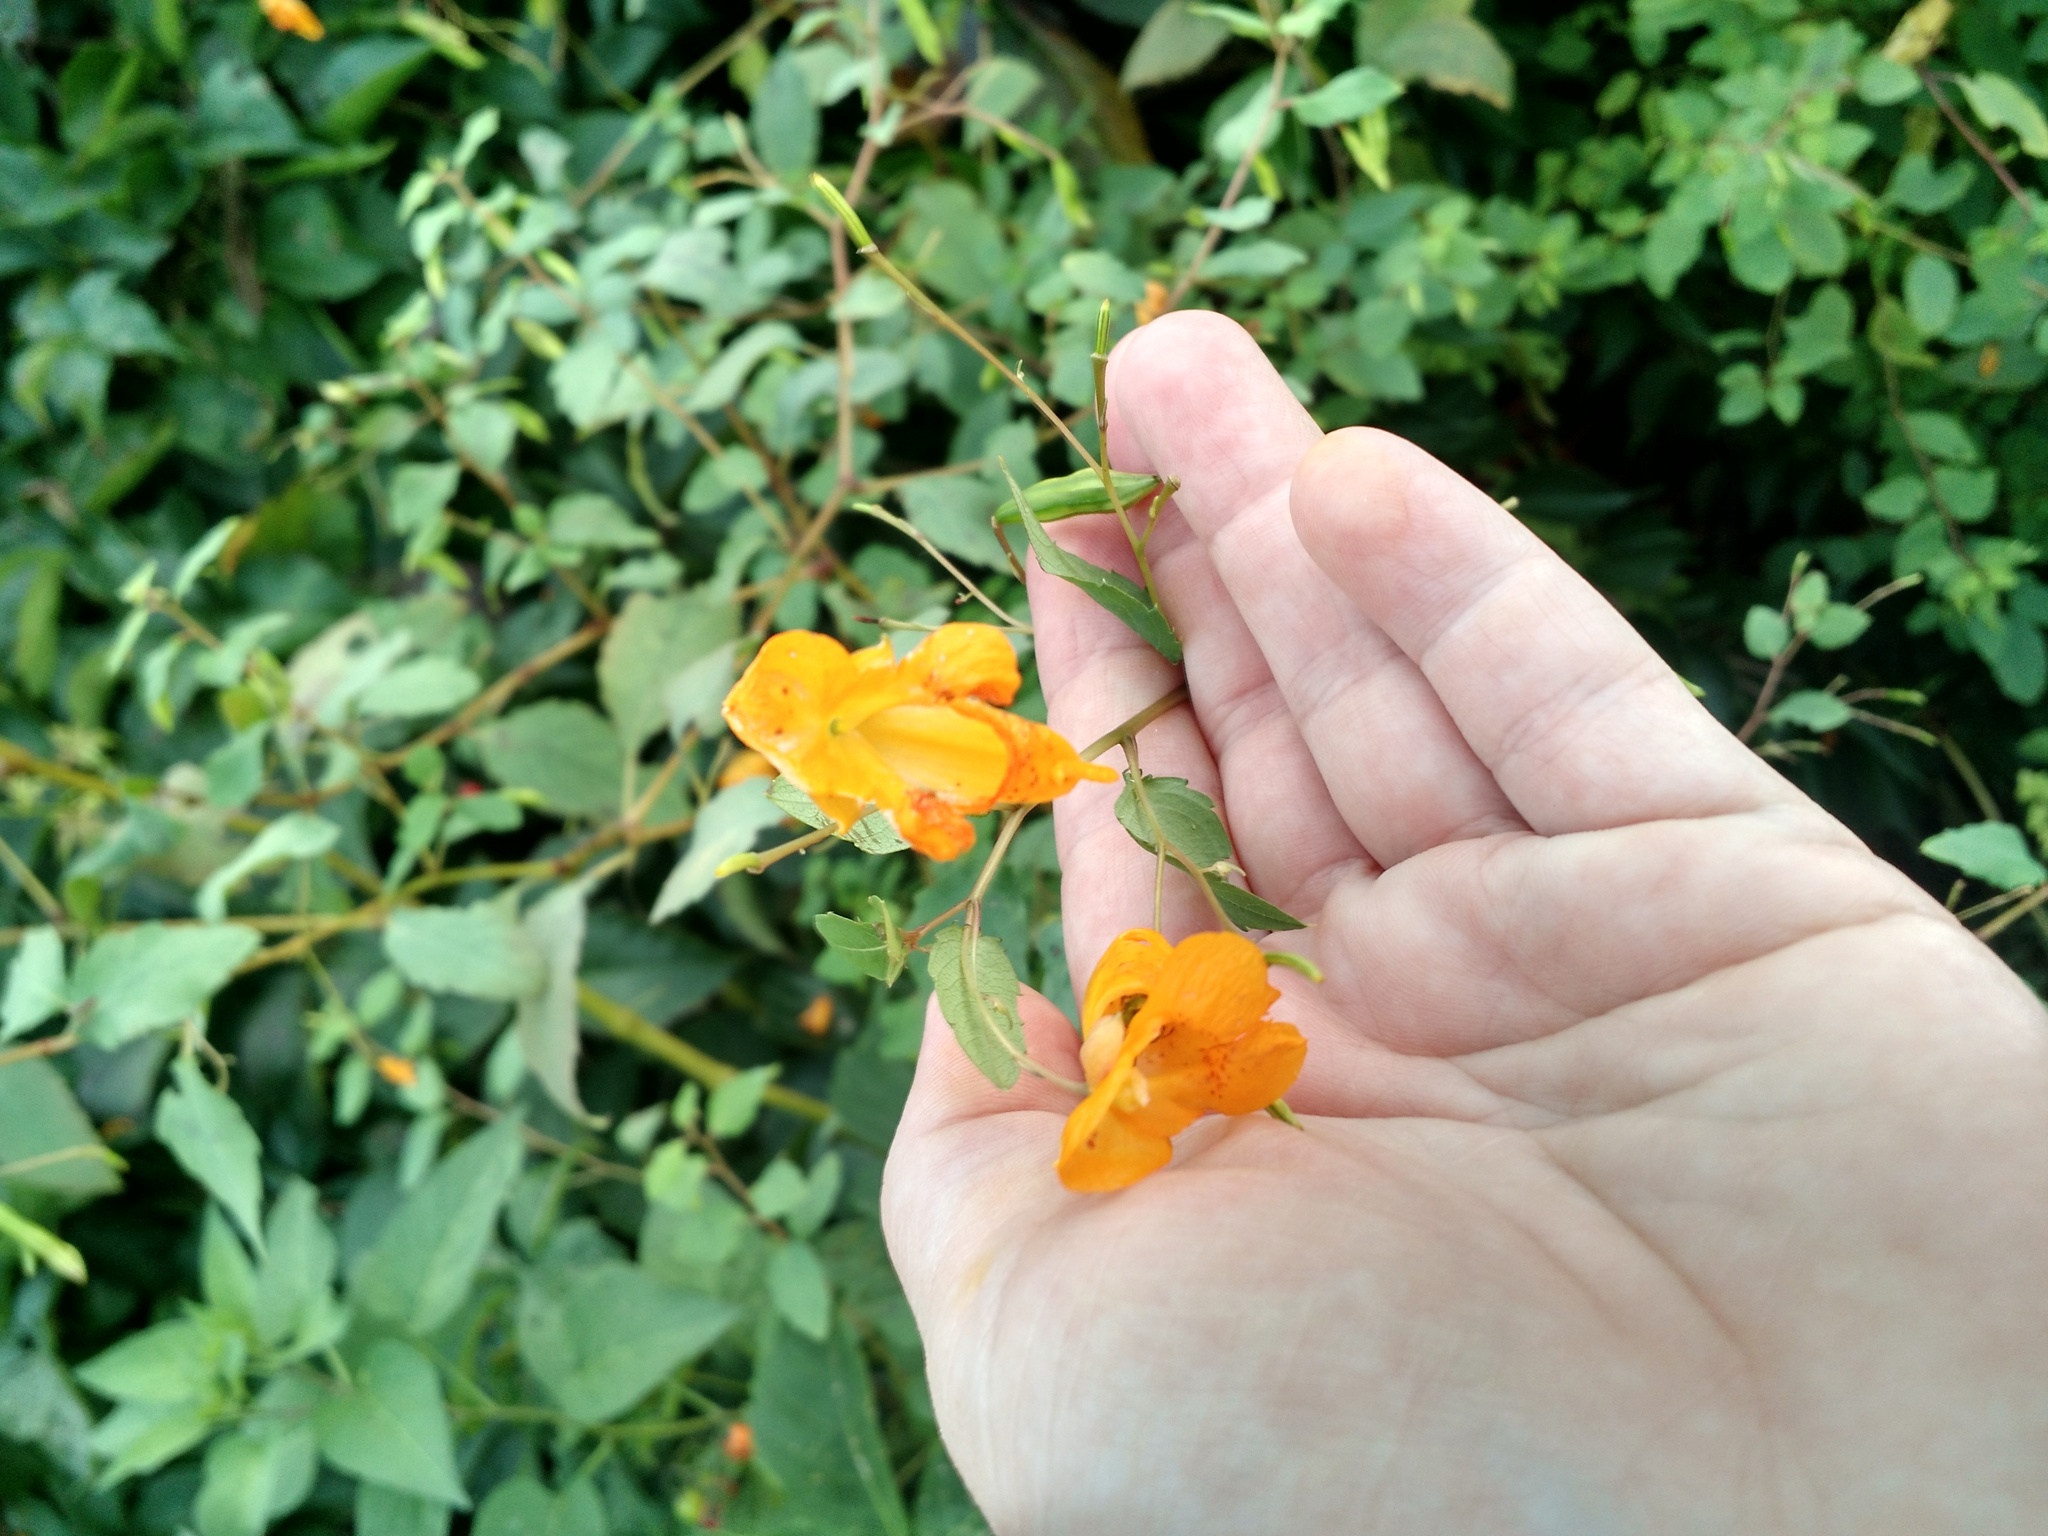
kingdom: Plantae
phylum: Tracheophyta
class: Magnoliopsida
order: Ericales
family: Balsaminaceae
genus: Impatiens
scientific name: Impatiens capensis
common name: Orange balsam
